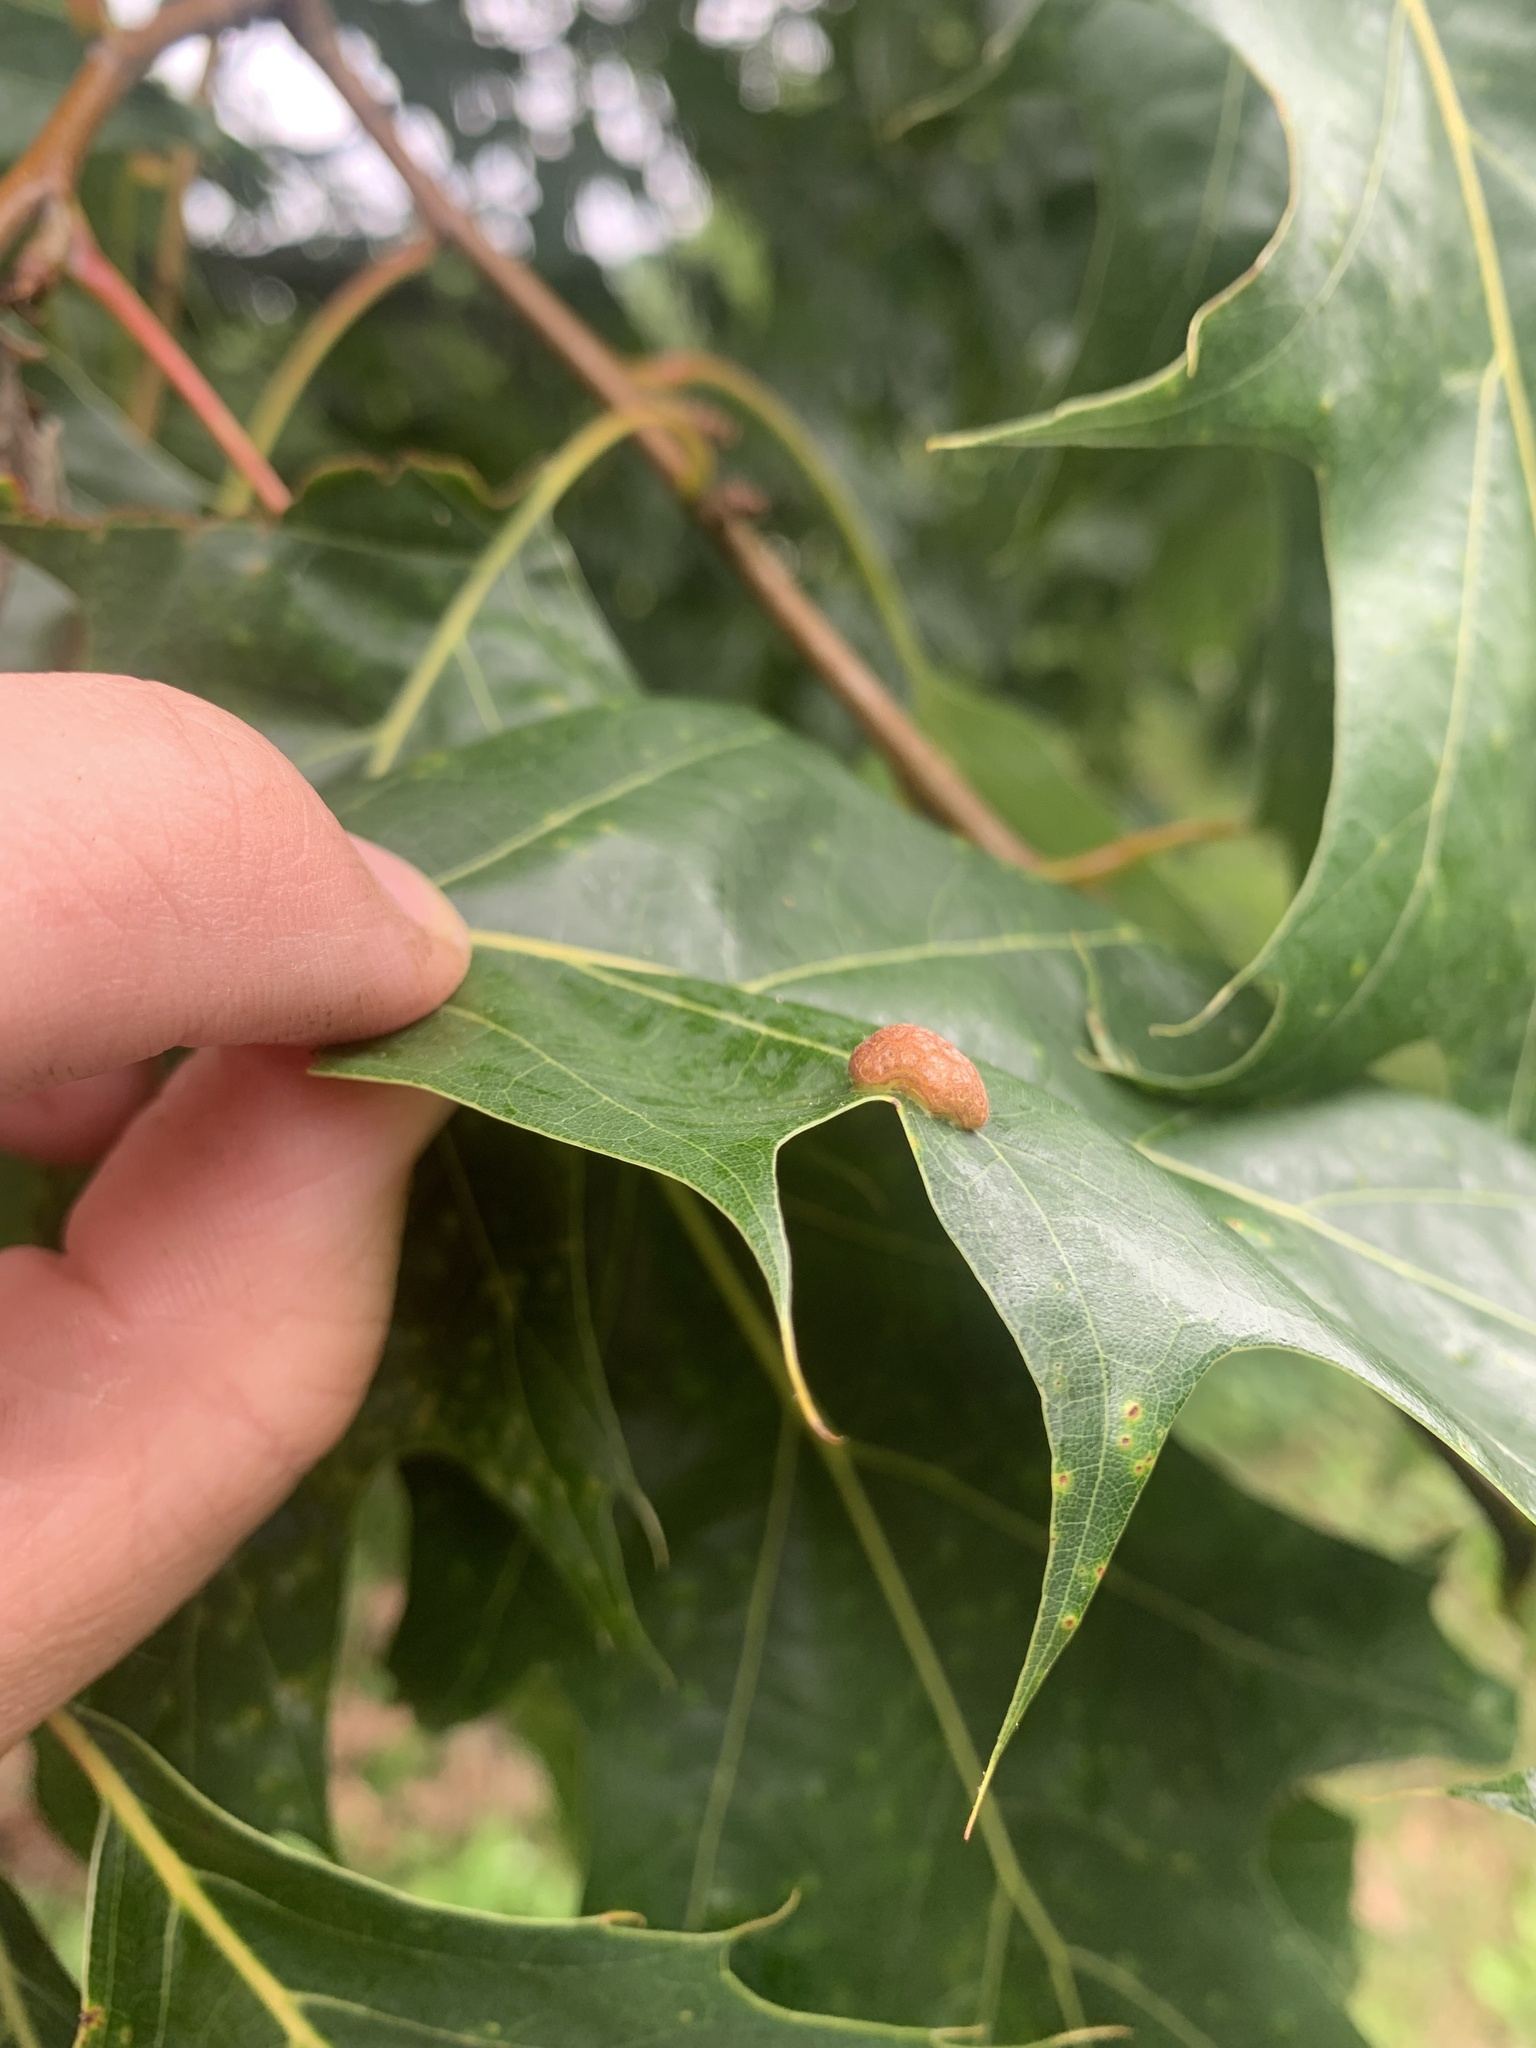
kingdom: Animalia
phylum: Arthropoda
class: Insecta
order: Diptera
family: Cecidomyiidae
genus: Polystepha
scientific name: Polystepha pilulae
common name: Oak leaf gall midge
